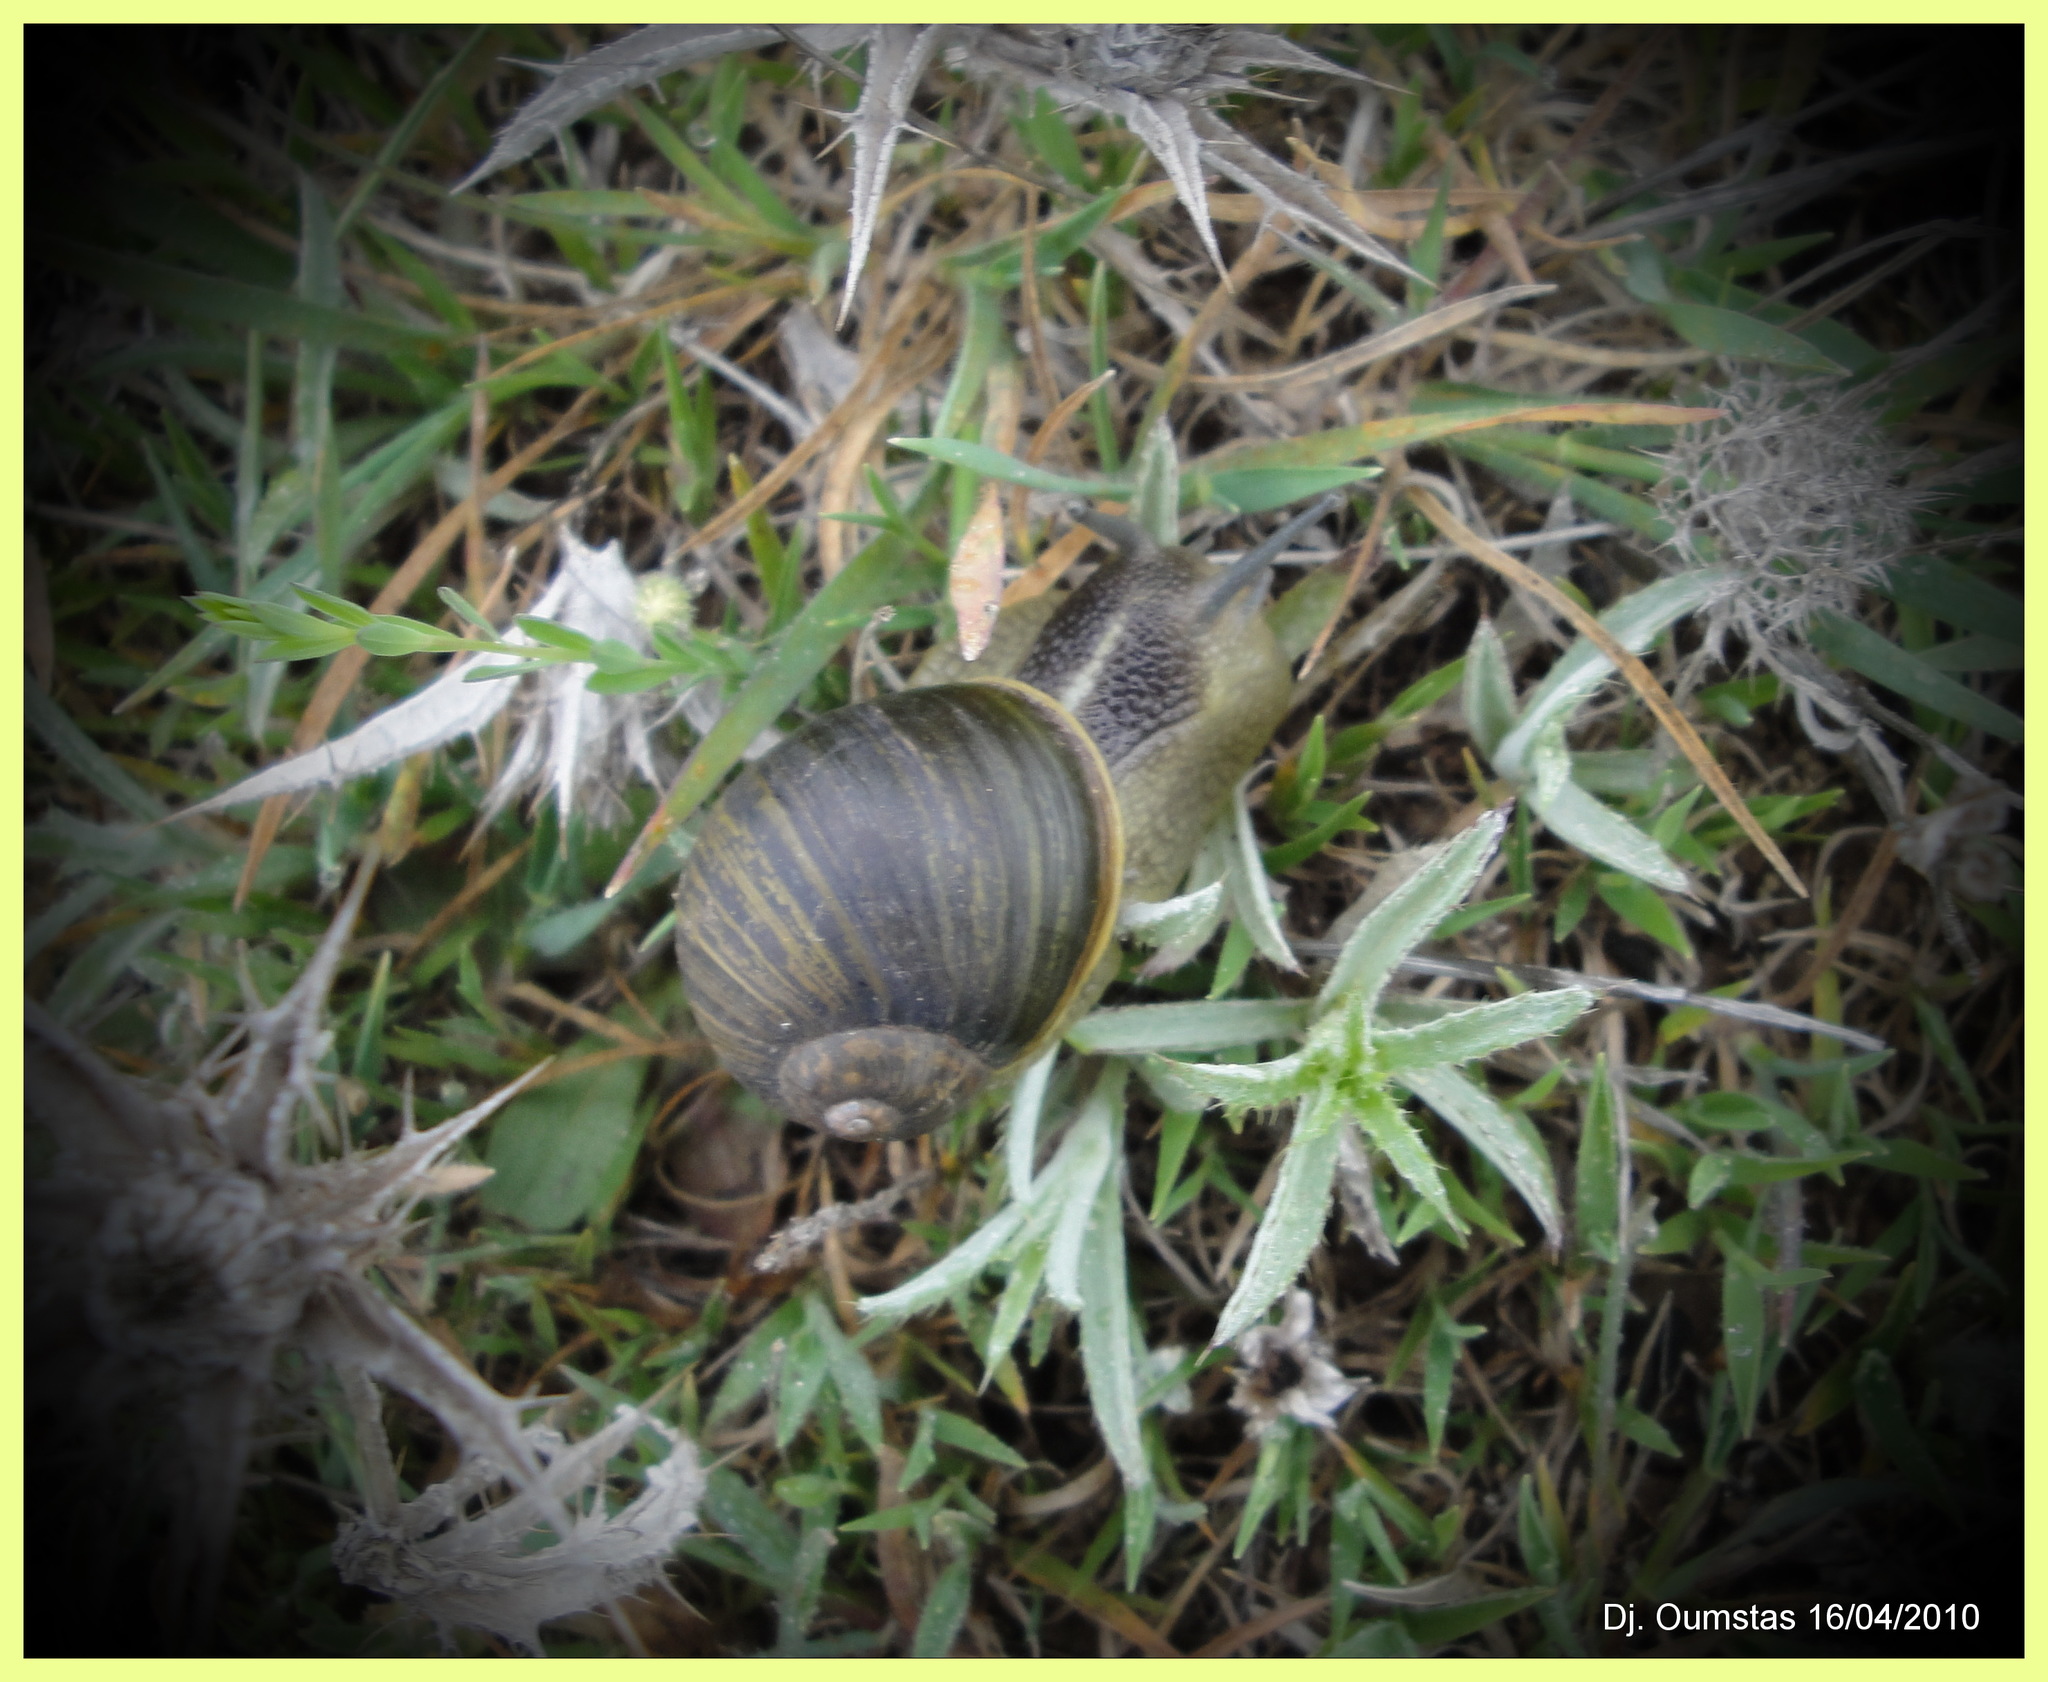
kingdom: Animalia
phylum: Mollusca
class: Gastropoda
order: Stylommatophora
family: Helicidae
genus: Cantareus
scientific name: Cantareus apertus
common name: Green gardensnail
